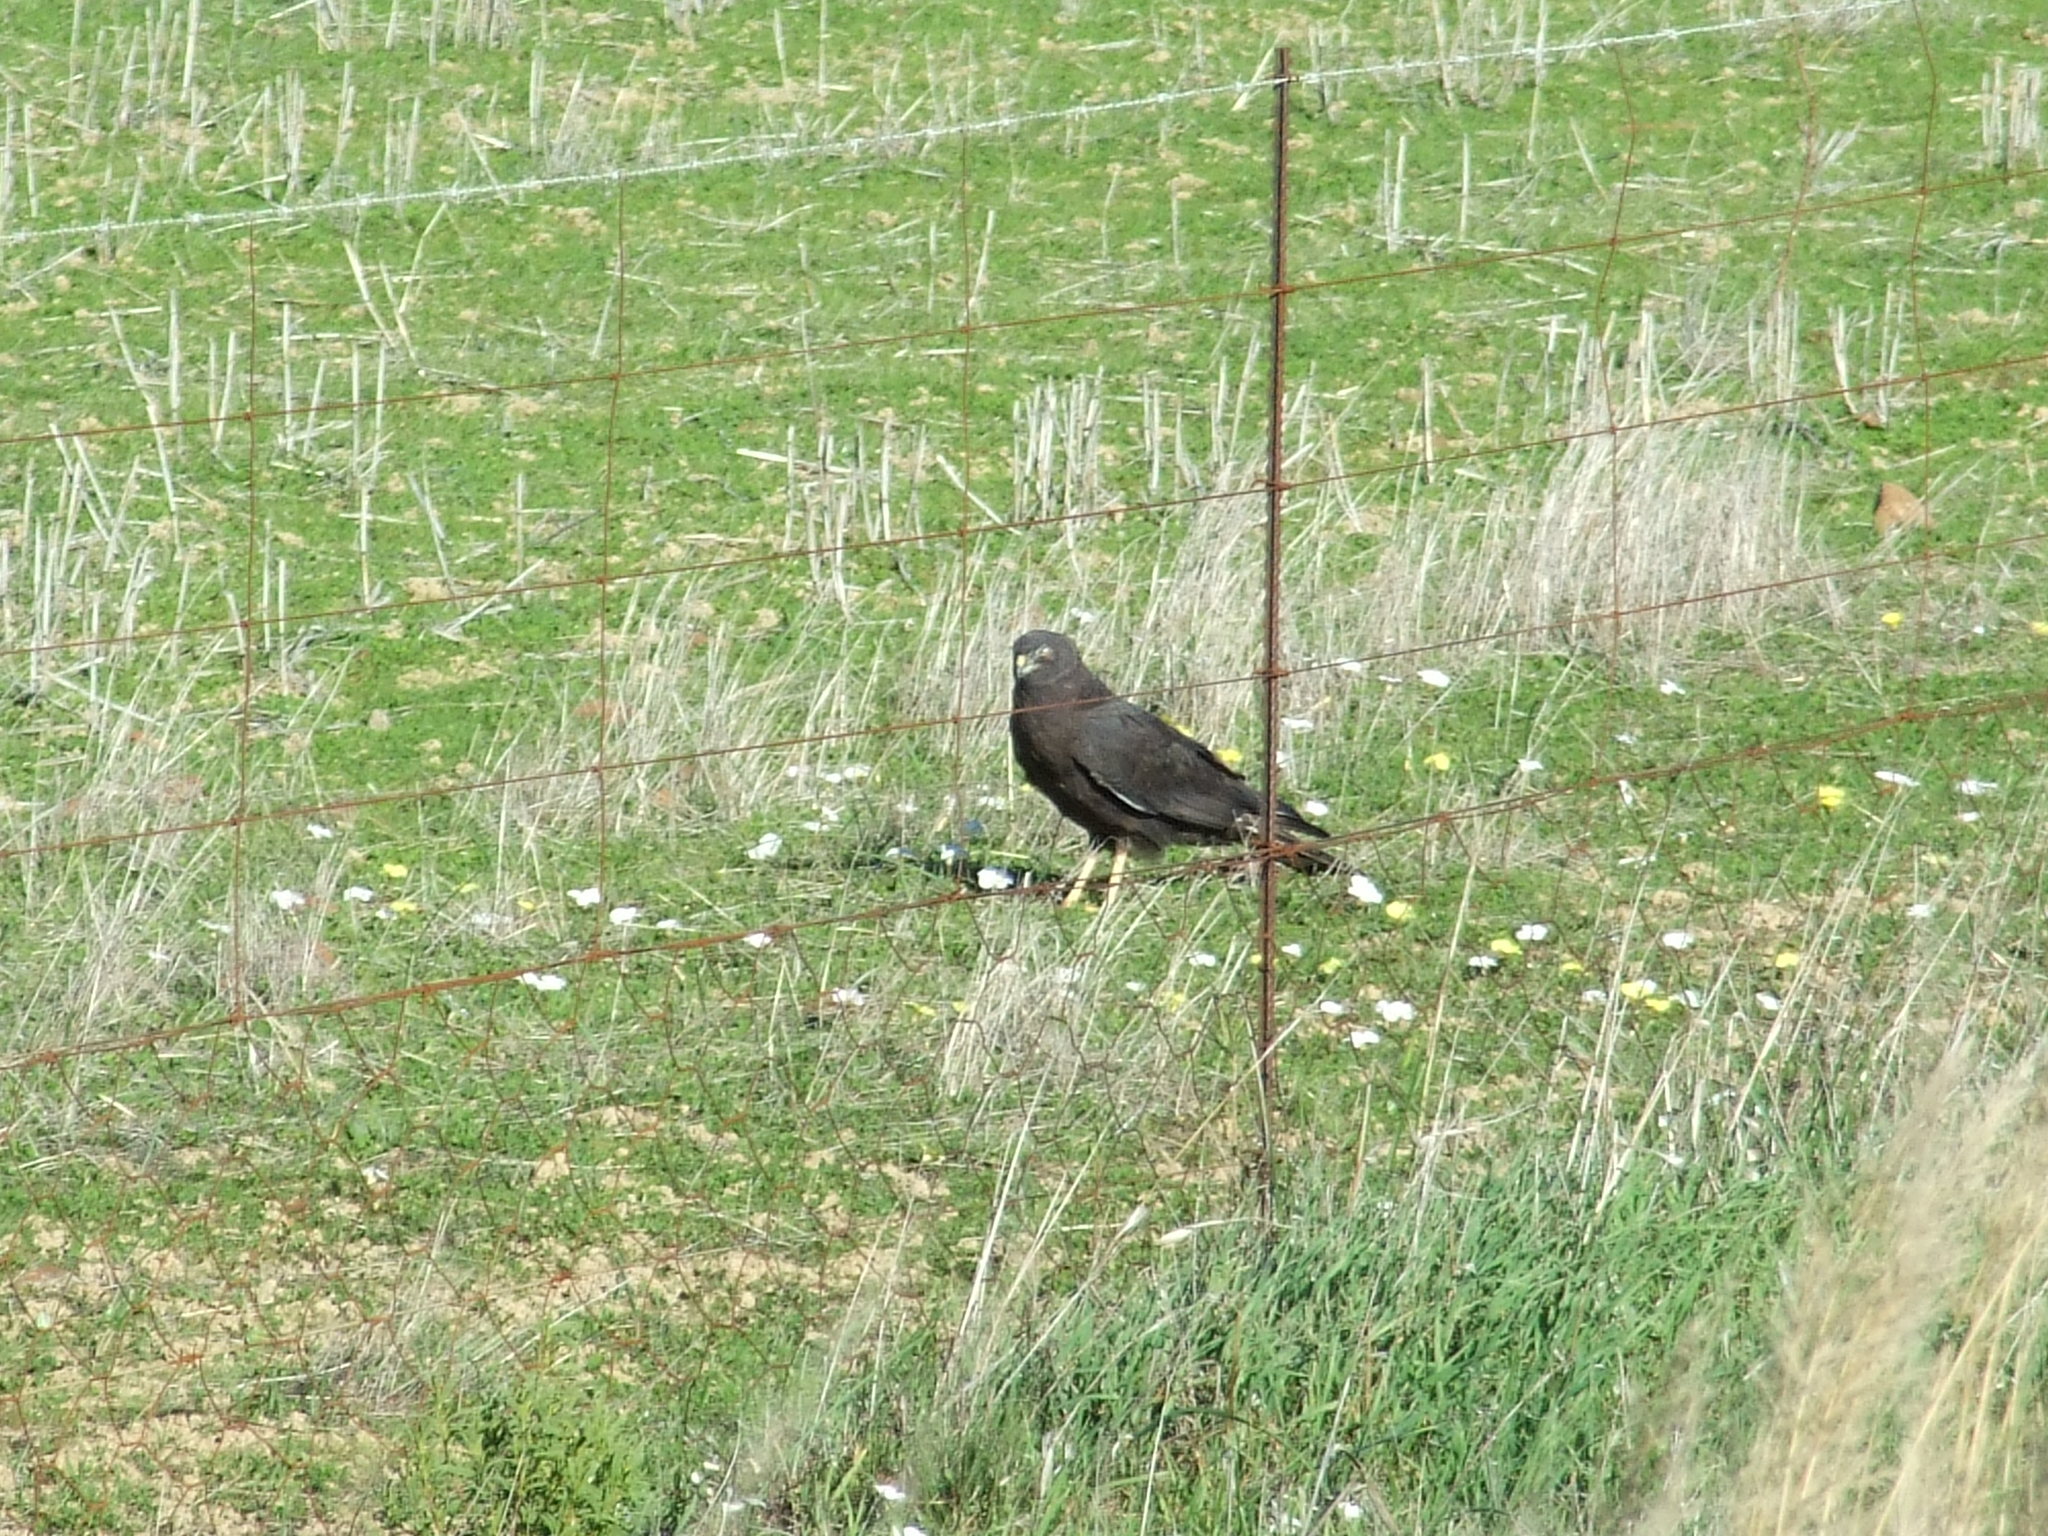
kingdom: Animalia
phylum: Chordata
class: Aves
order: Accipitriformes
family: Accipitridae
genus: Circus
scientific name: Circus maurus
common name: Black harrier
